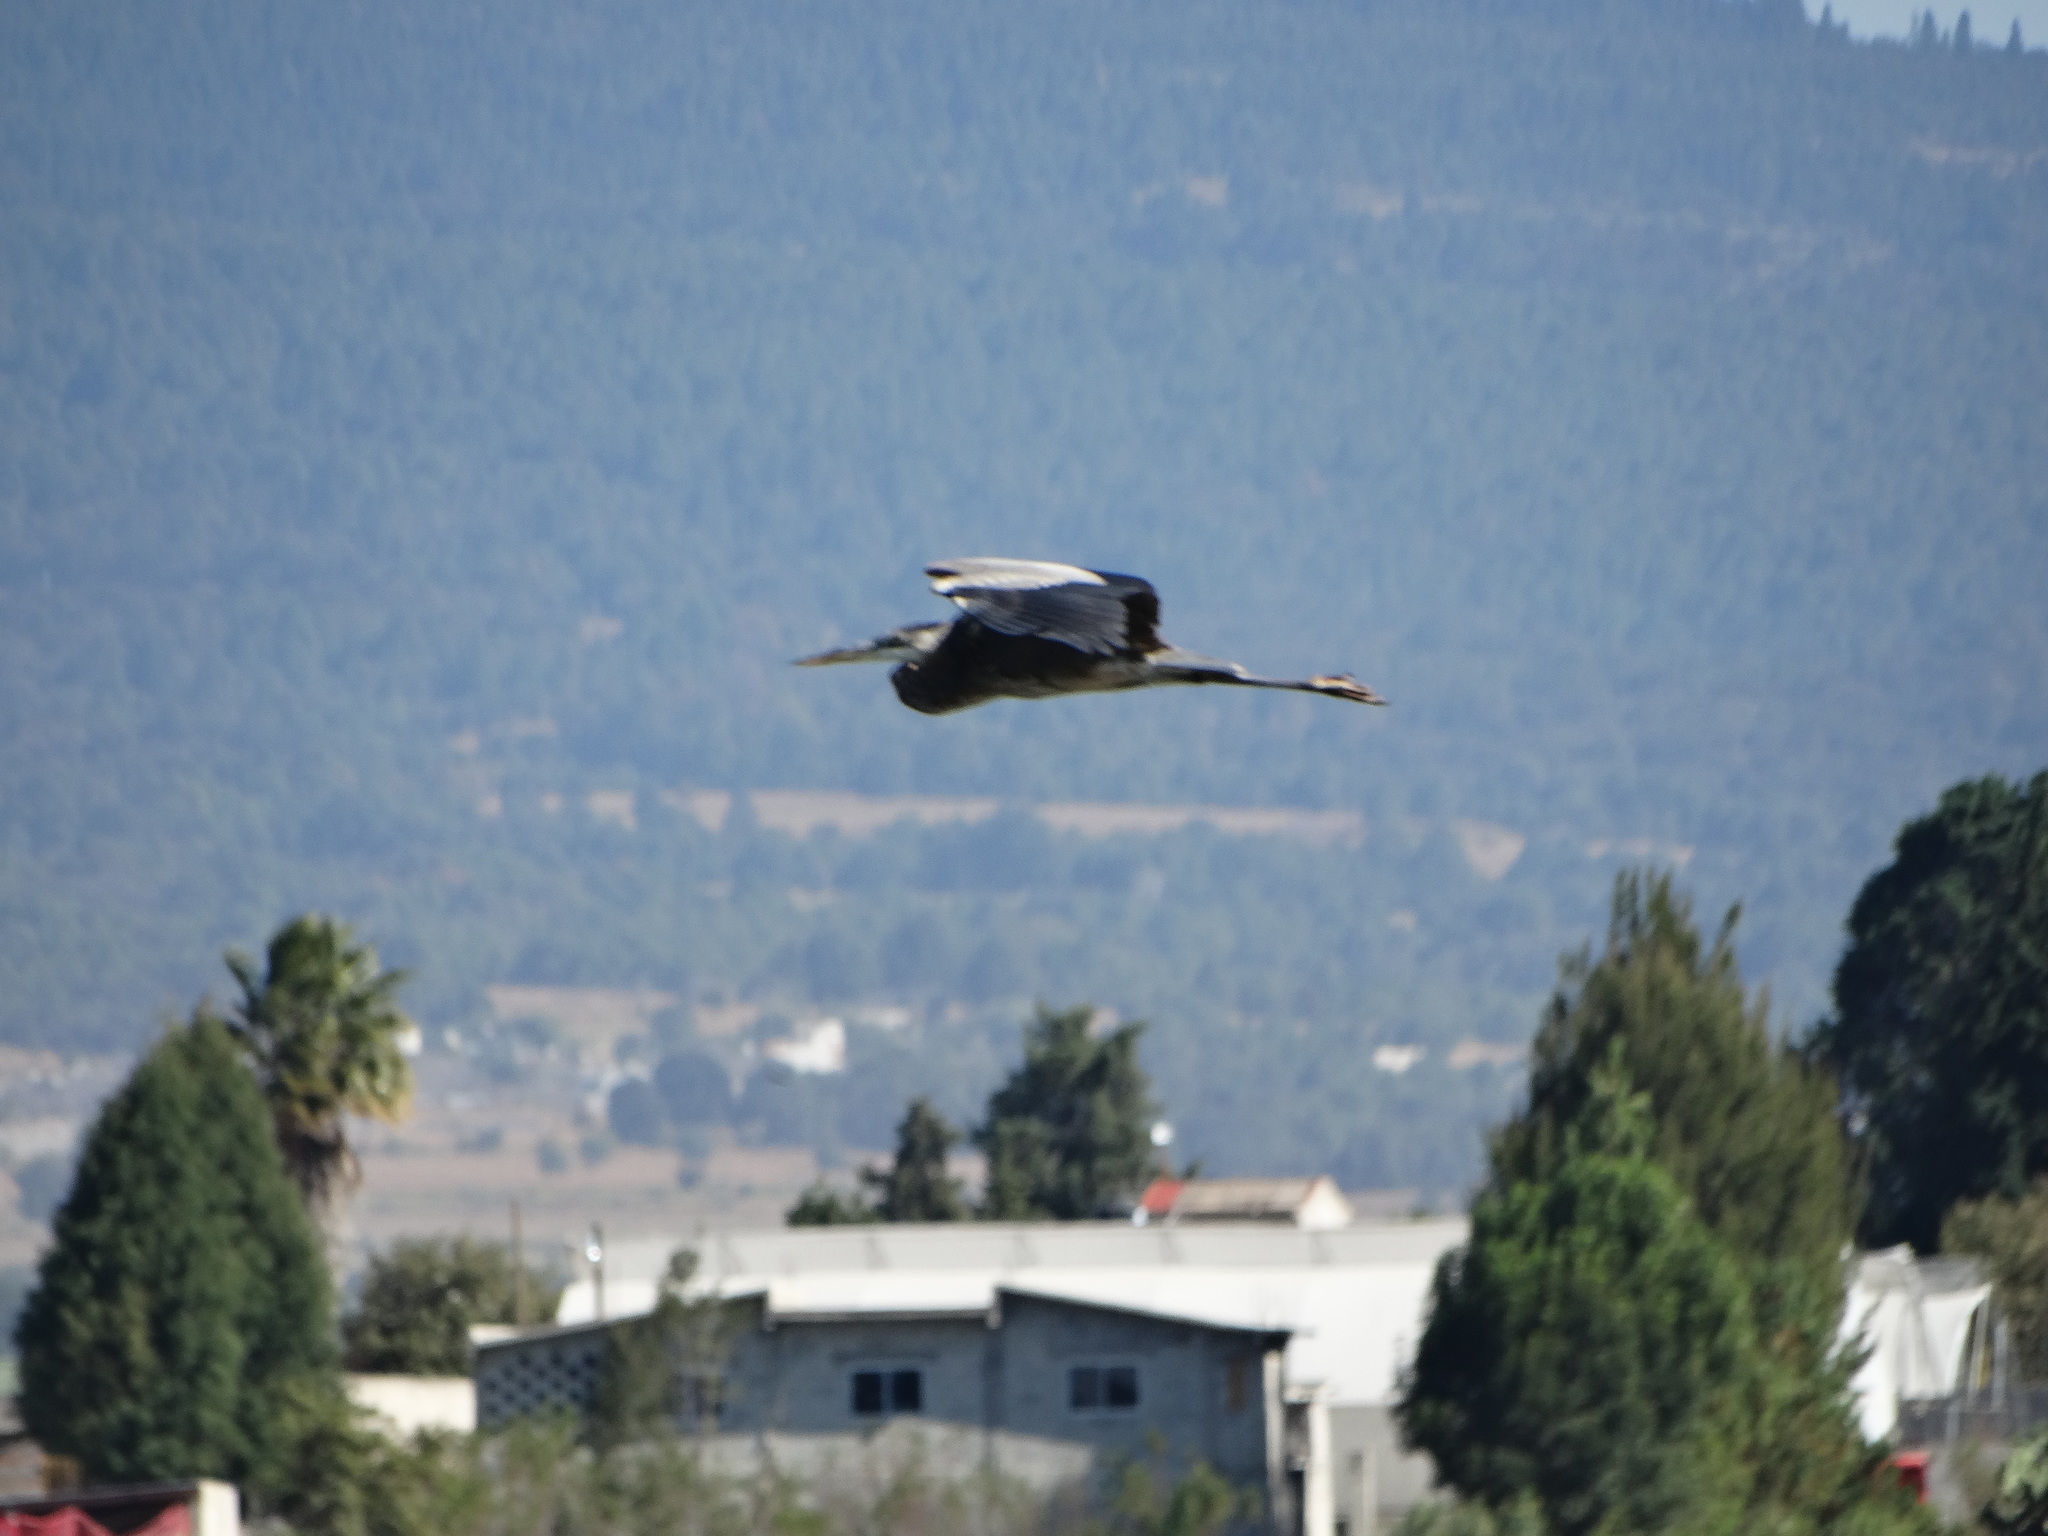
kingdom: Animalia
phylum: Chordata
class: Aves
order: Pelecaniformes
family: Ardeidae
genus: Ardea
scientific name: Ardea herodias
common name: Great blue heron
